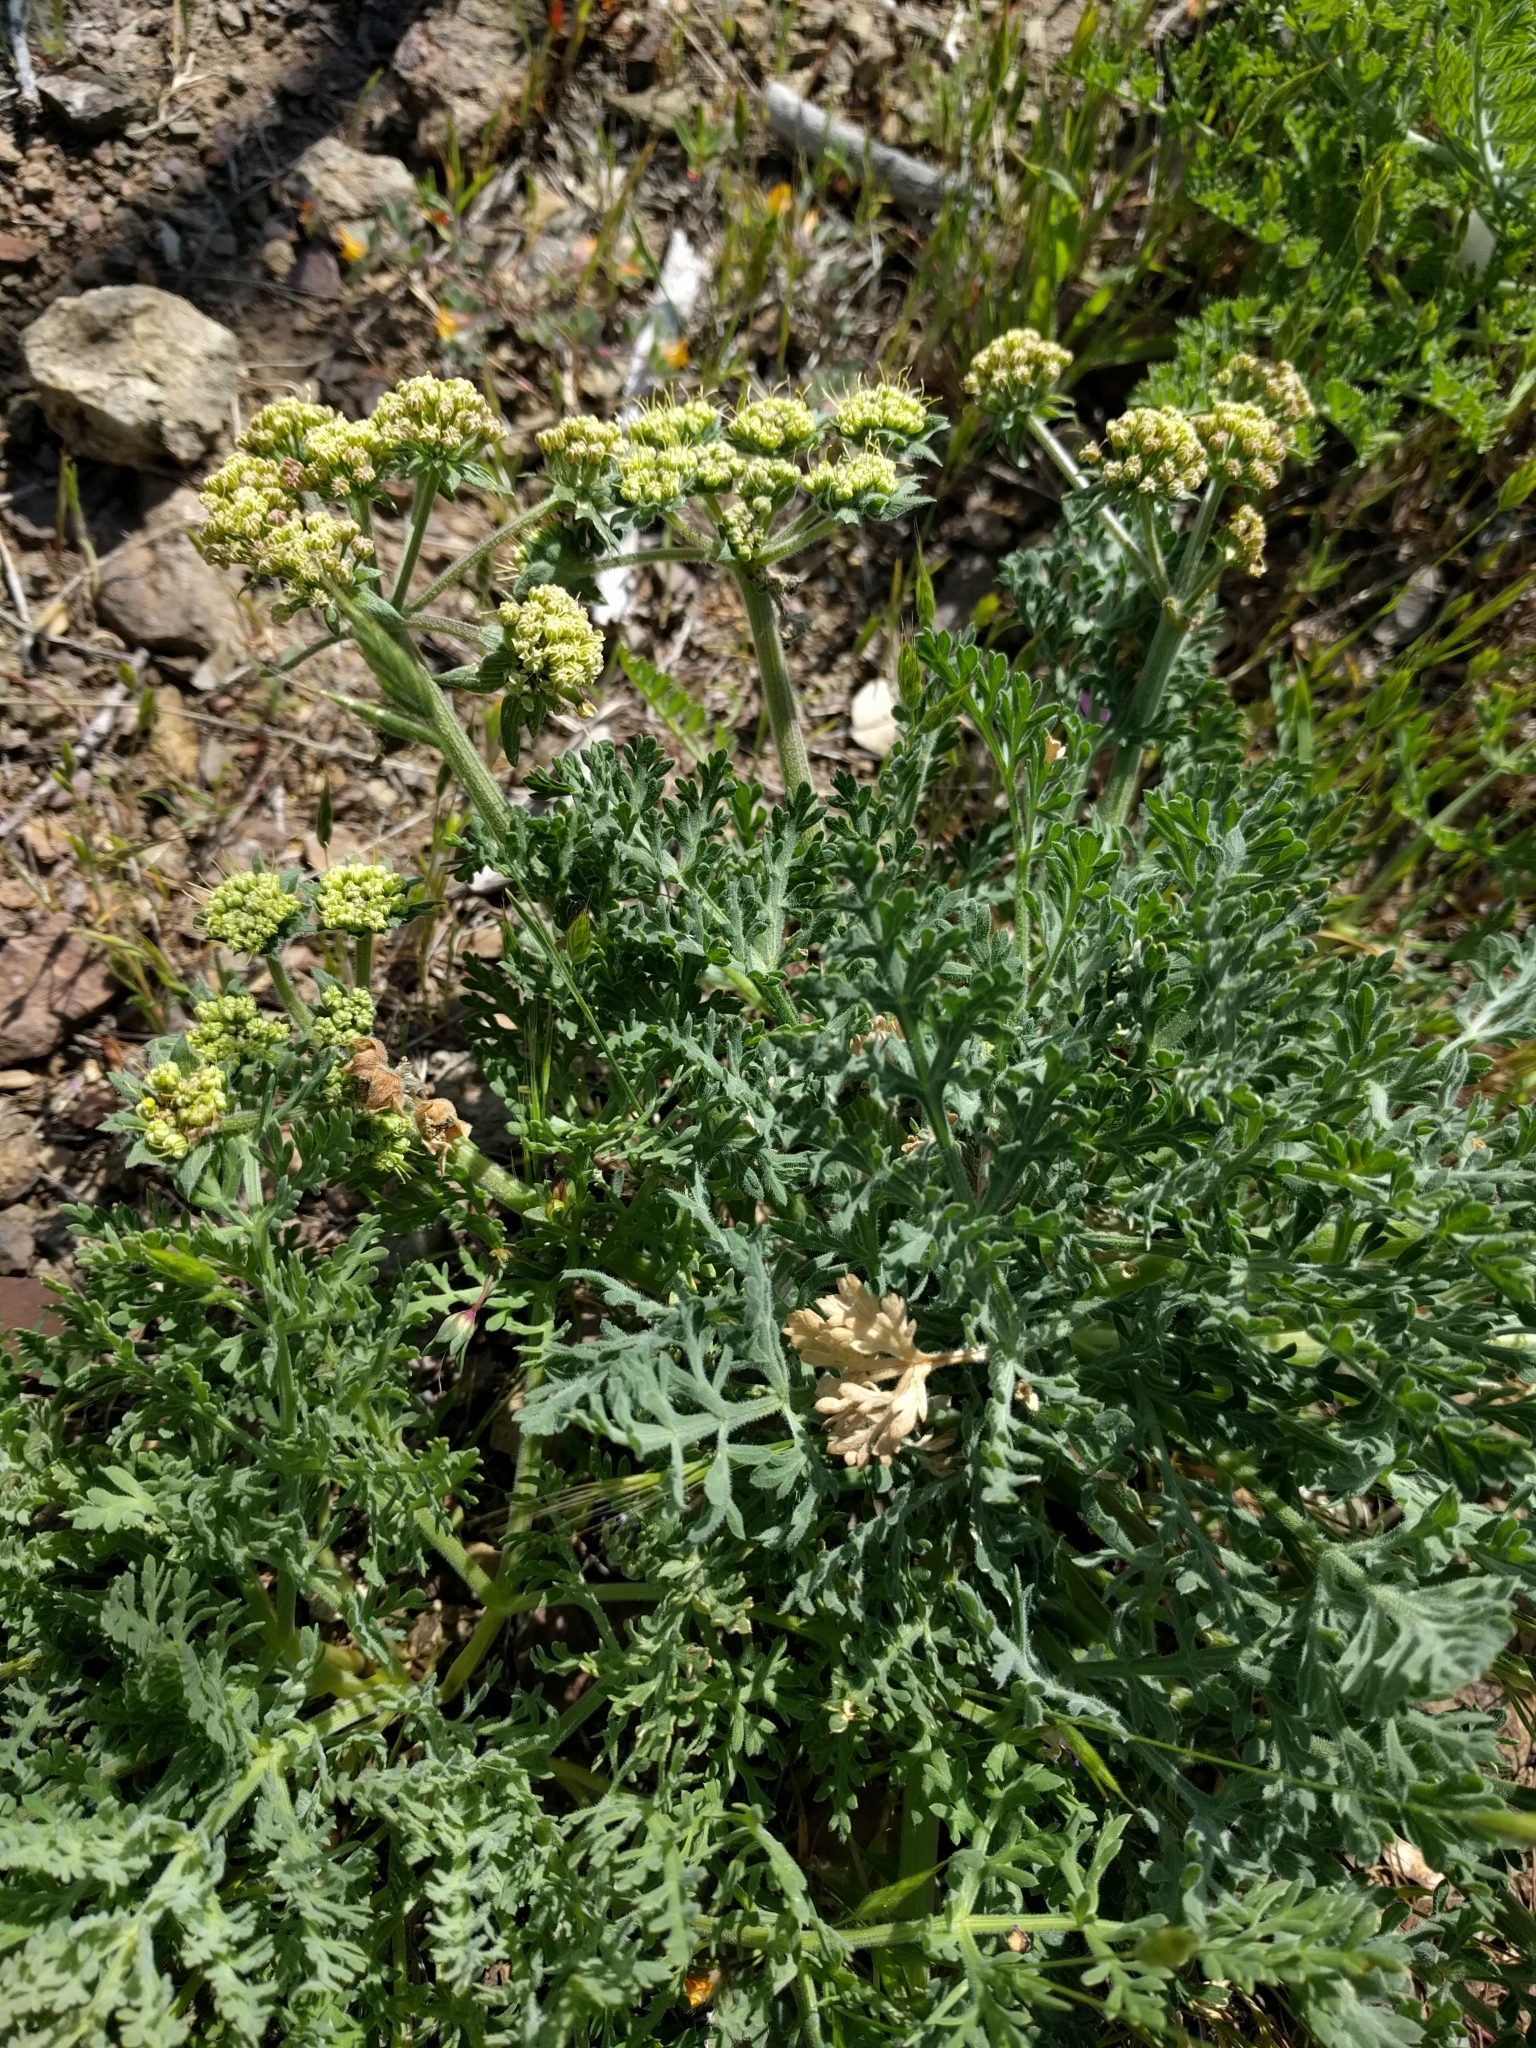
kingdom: Plantae
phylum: Tracheophyta
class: Magnoliopsida
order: Apiales
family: Apiaceae
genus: Lomatium
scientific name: Lomatium macrocarpum
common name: Big-seed biscuitroot
